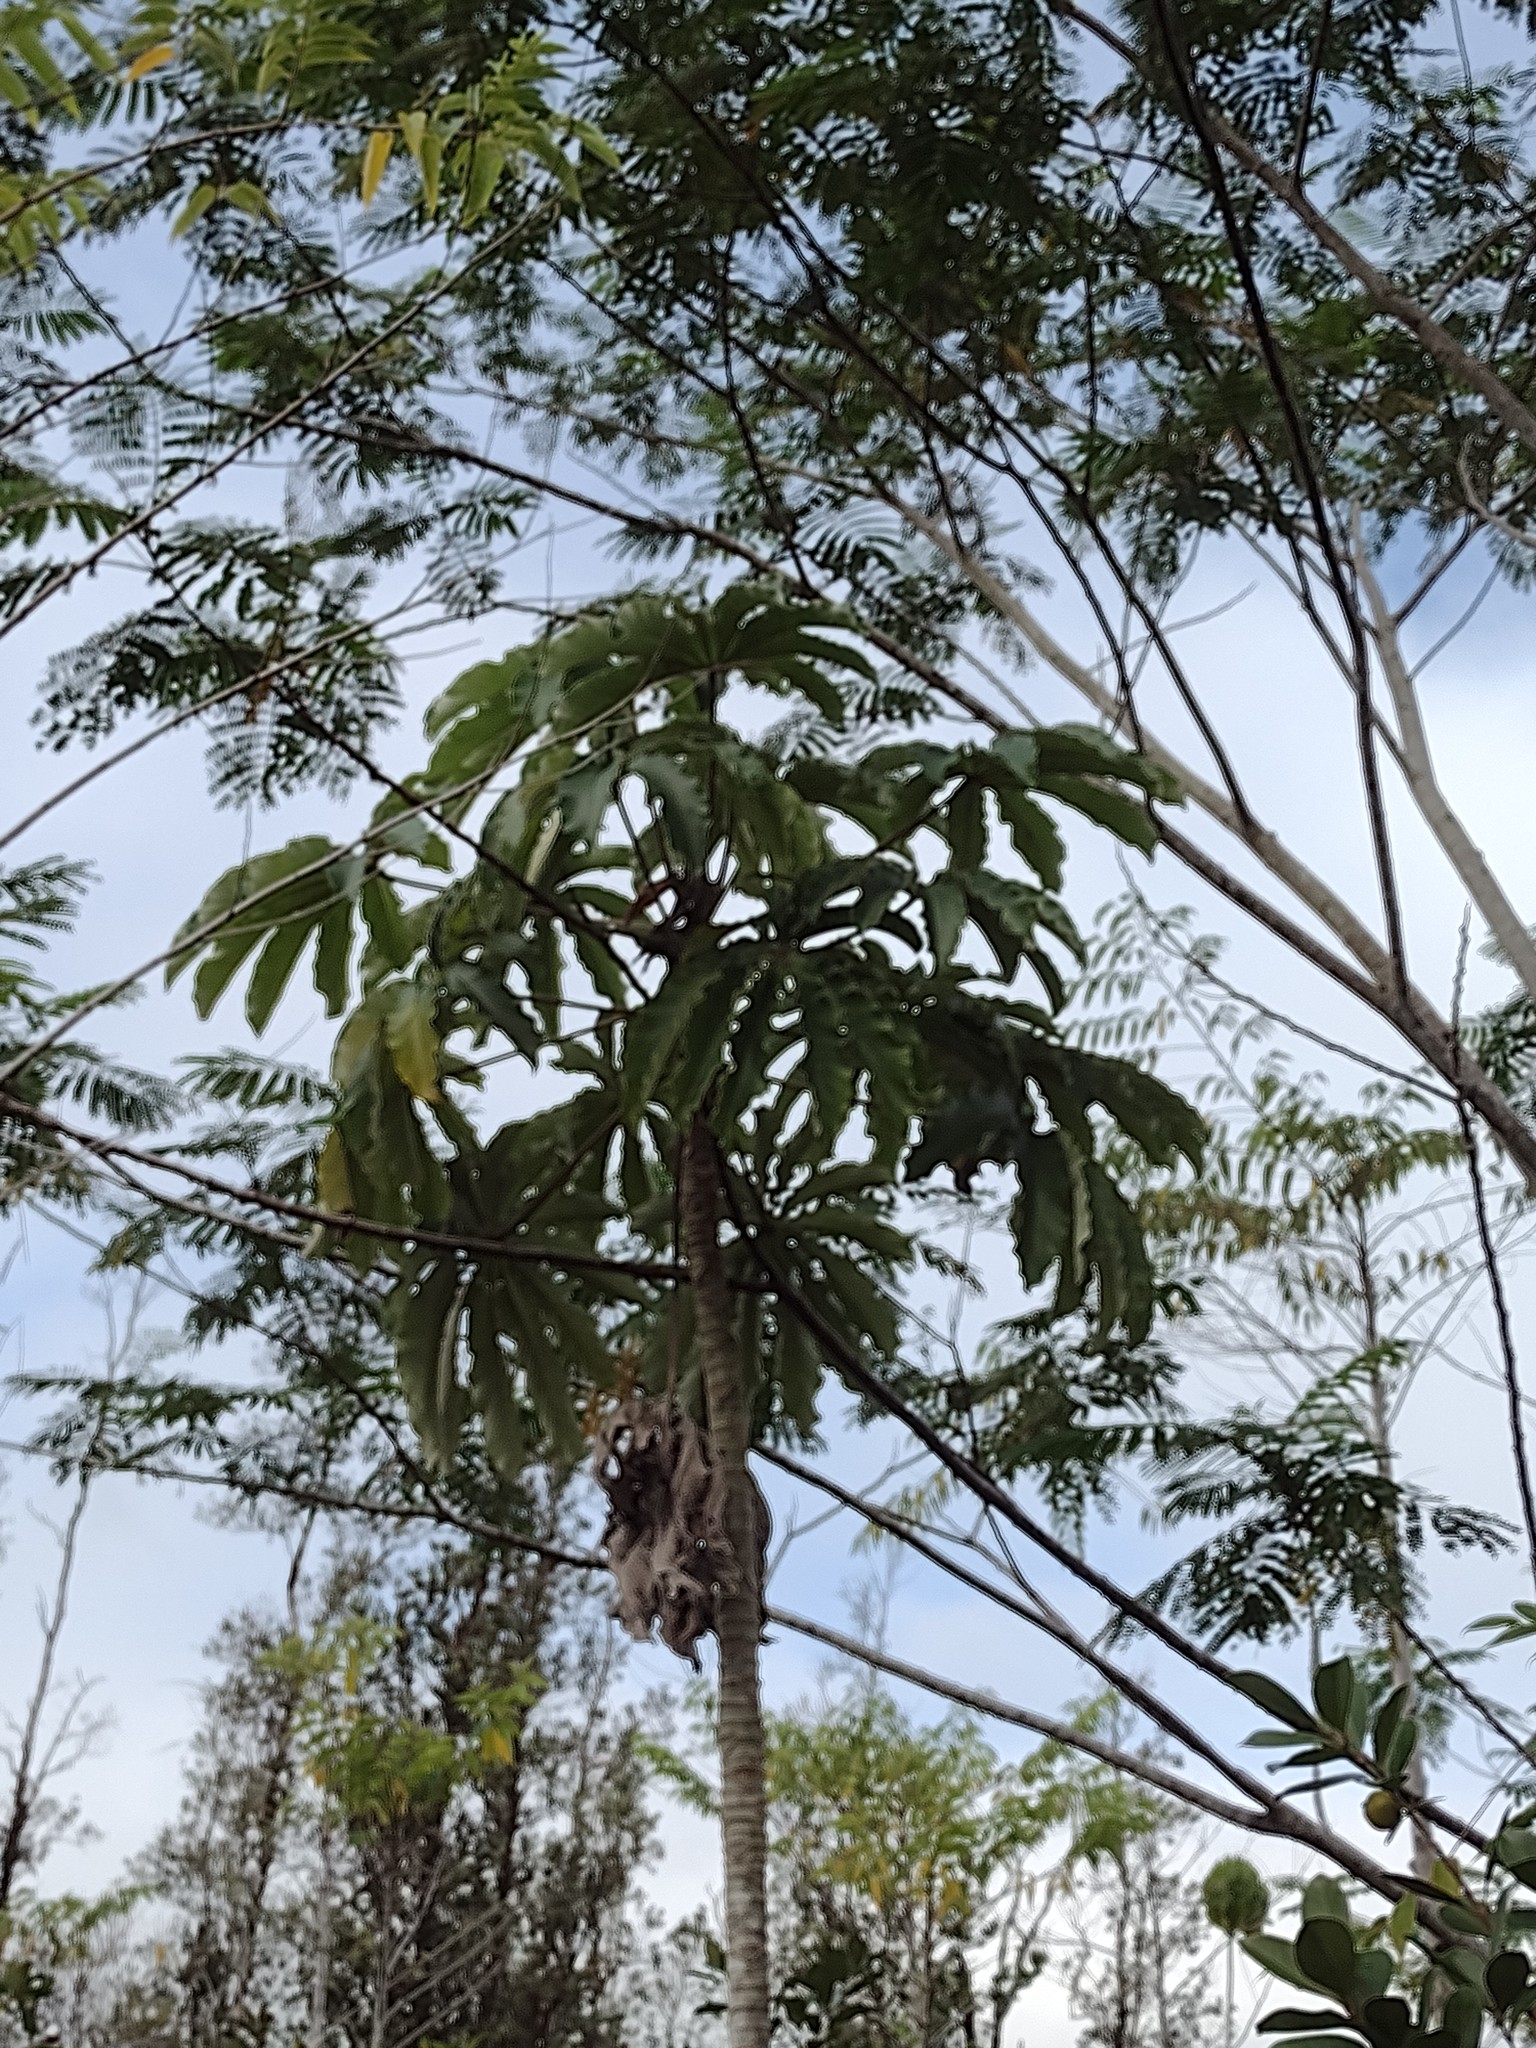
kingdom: Plantae
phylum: Tracheophyta
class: Magnoliopsida
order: Rosales
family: Urticaceae
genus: Cecropia
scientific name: Cecropia obtusifolia
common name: Trumpet tree
